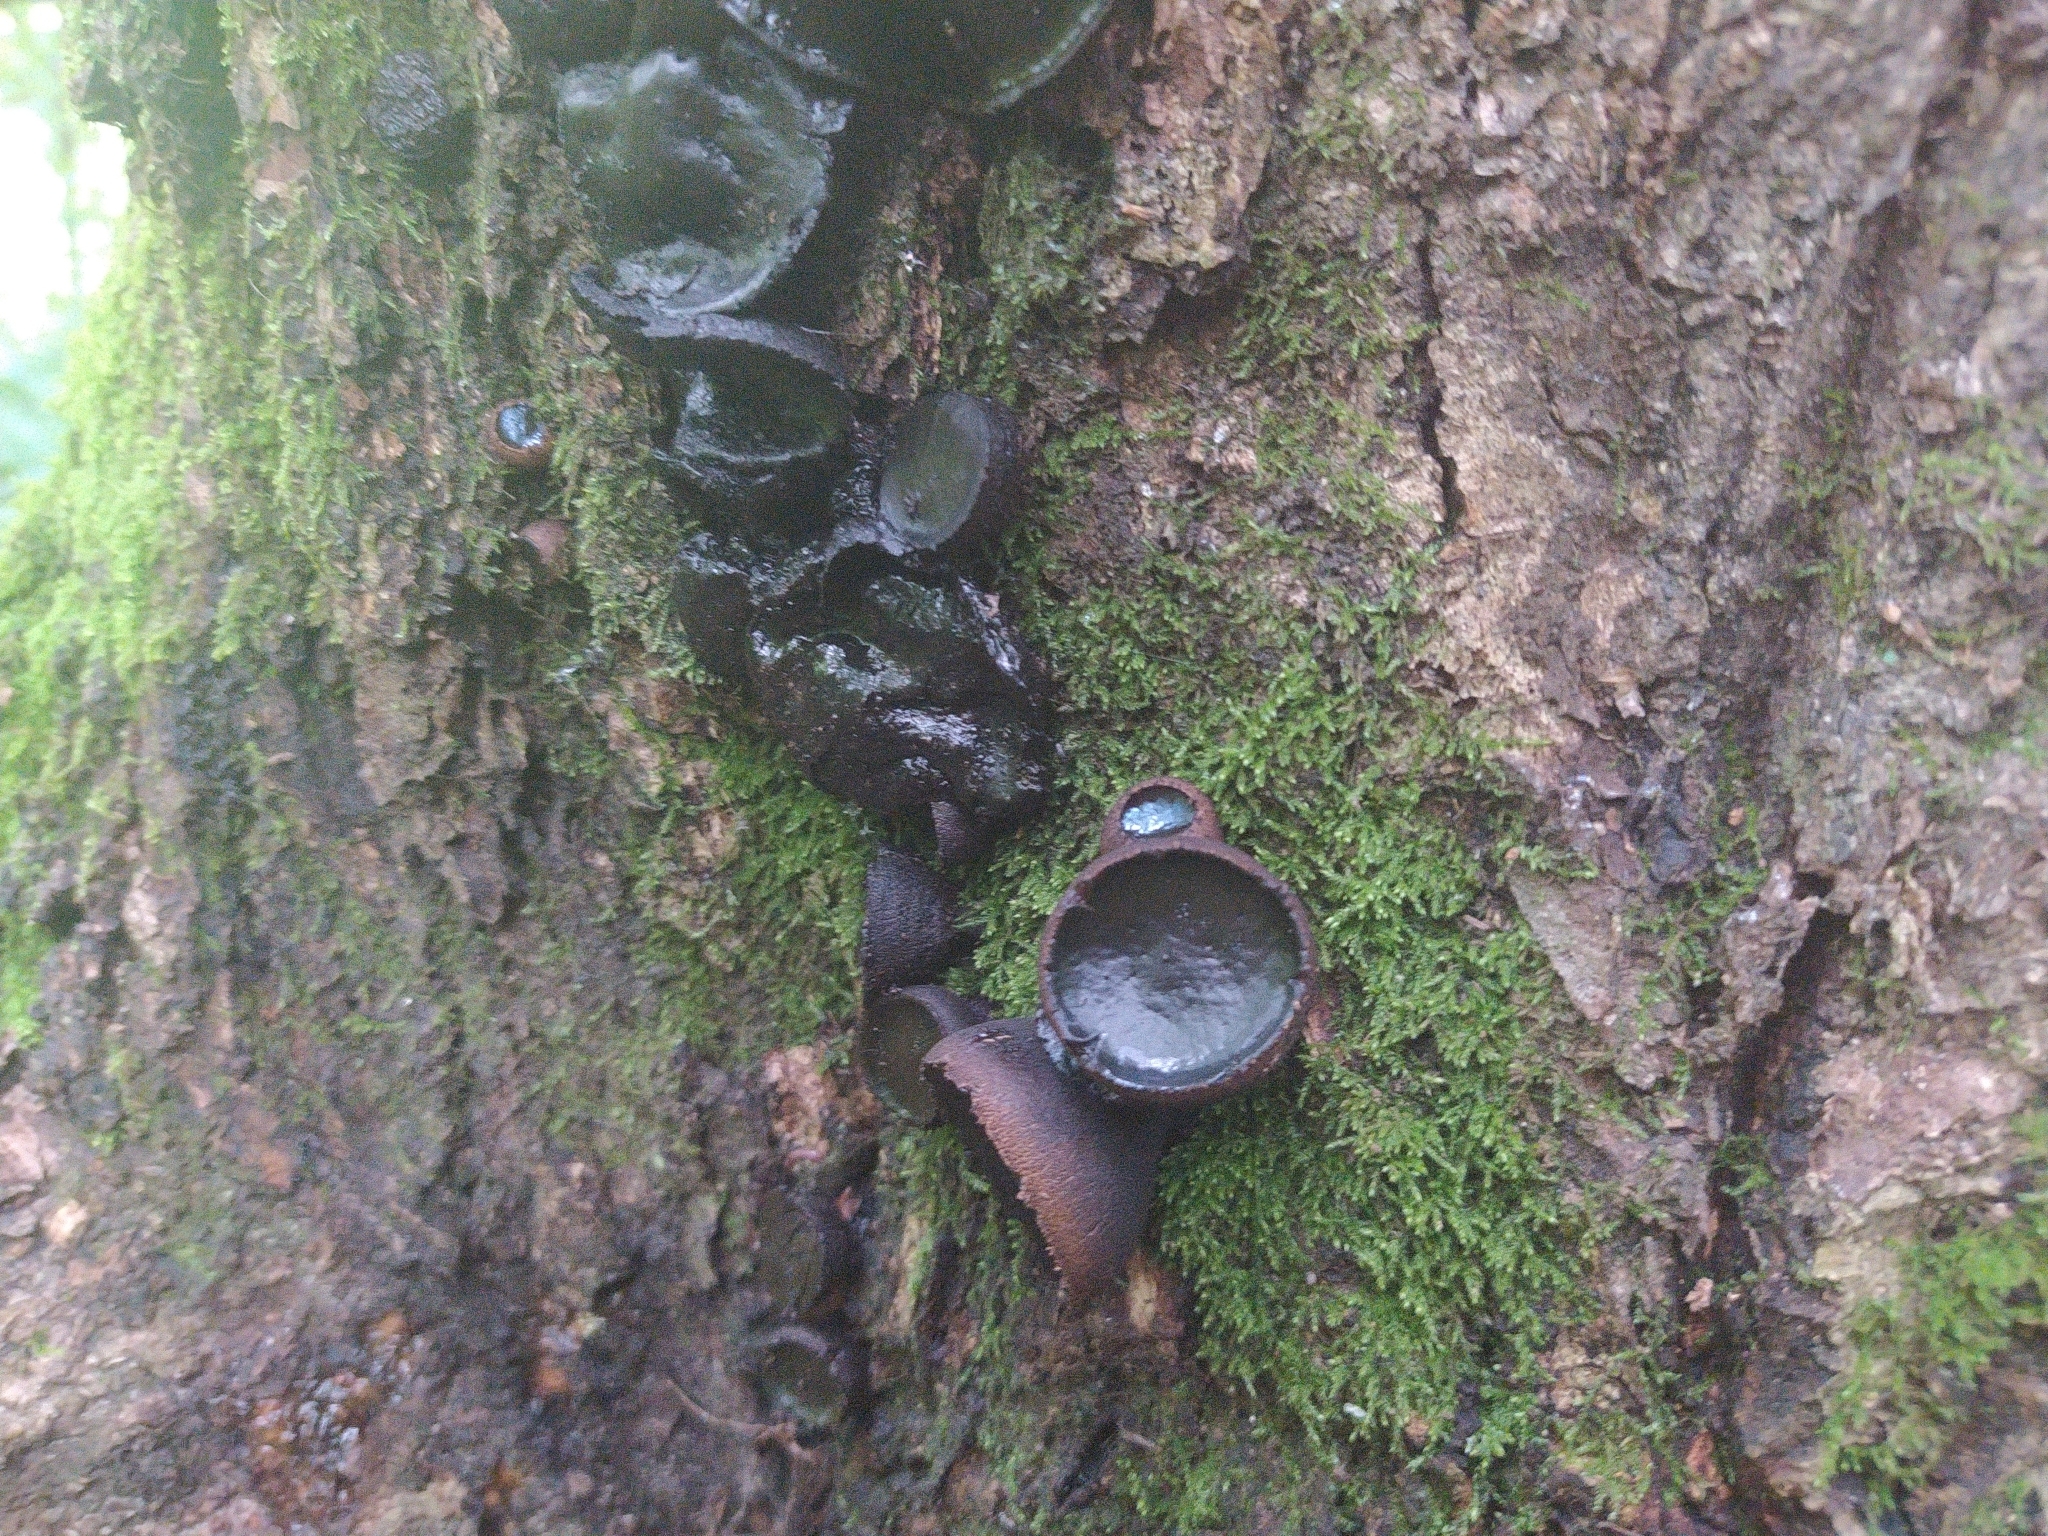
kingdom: Fungi
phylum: Ascomycota
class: Leotiomycetes
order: Phacidiales
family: Phacidiaceae
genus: Bulgaria
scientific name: Bulgaria inquinans
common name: Black bulgar
